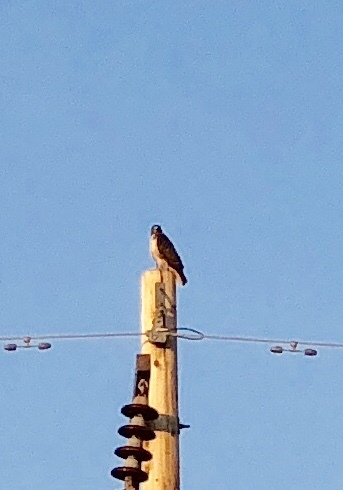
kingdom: Animalia
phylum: Chordata
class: Aves
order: Accipitriformes
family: Accipitridae
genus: Buteo
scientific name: Buteo jamaicensis
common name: Red-tailed hawk
